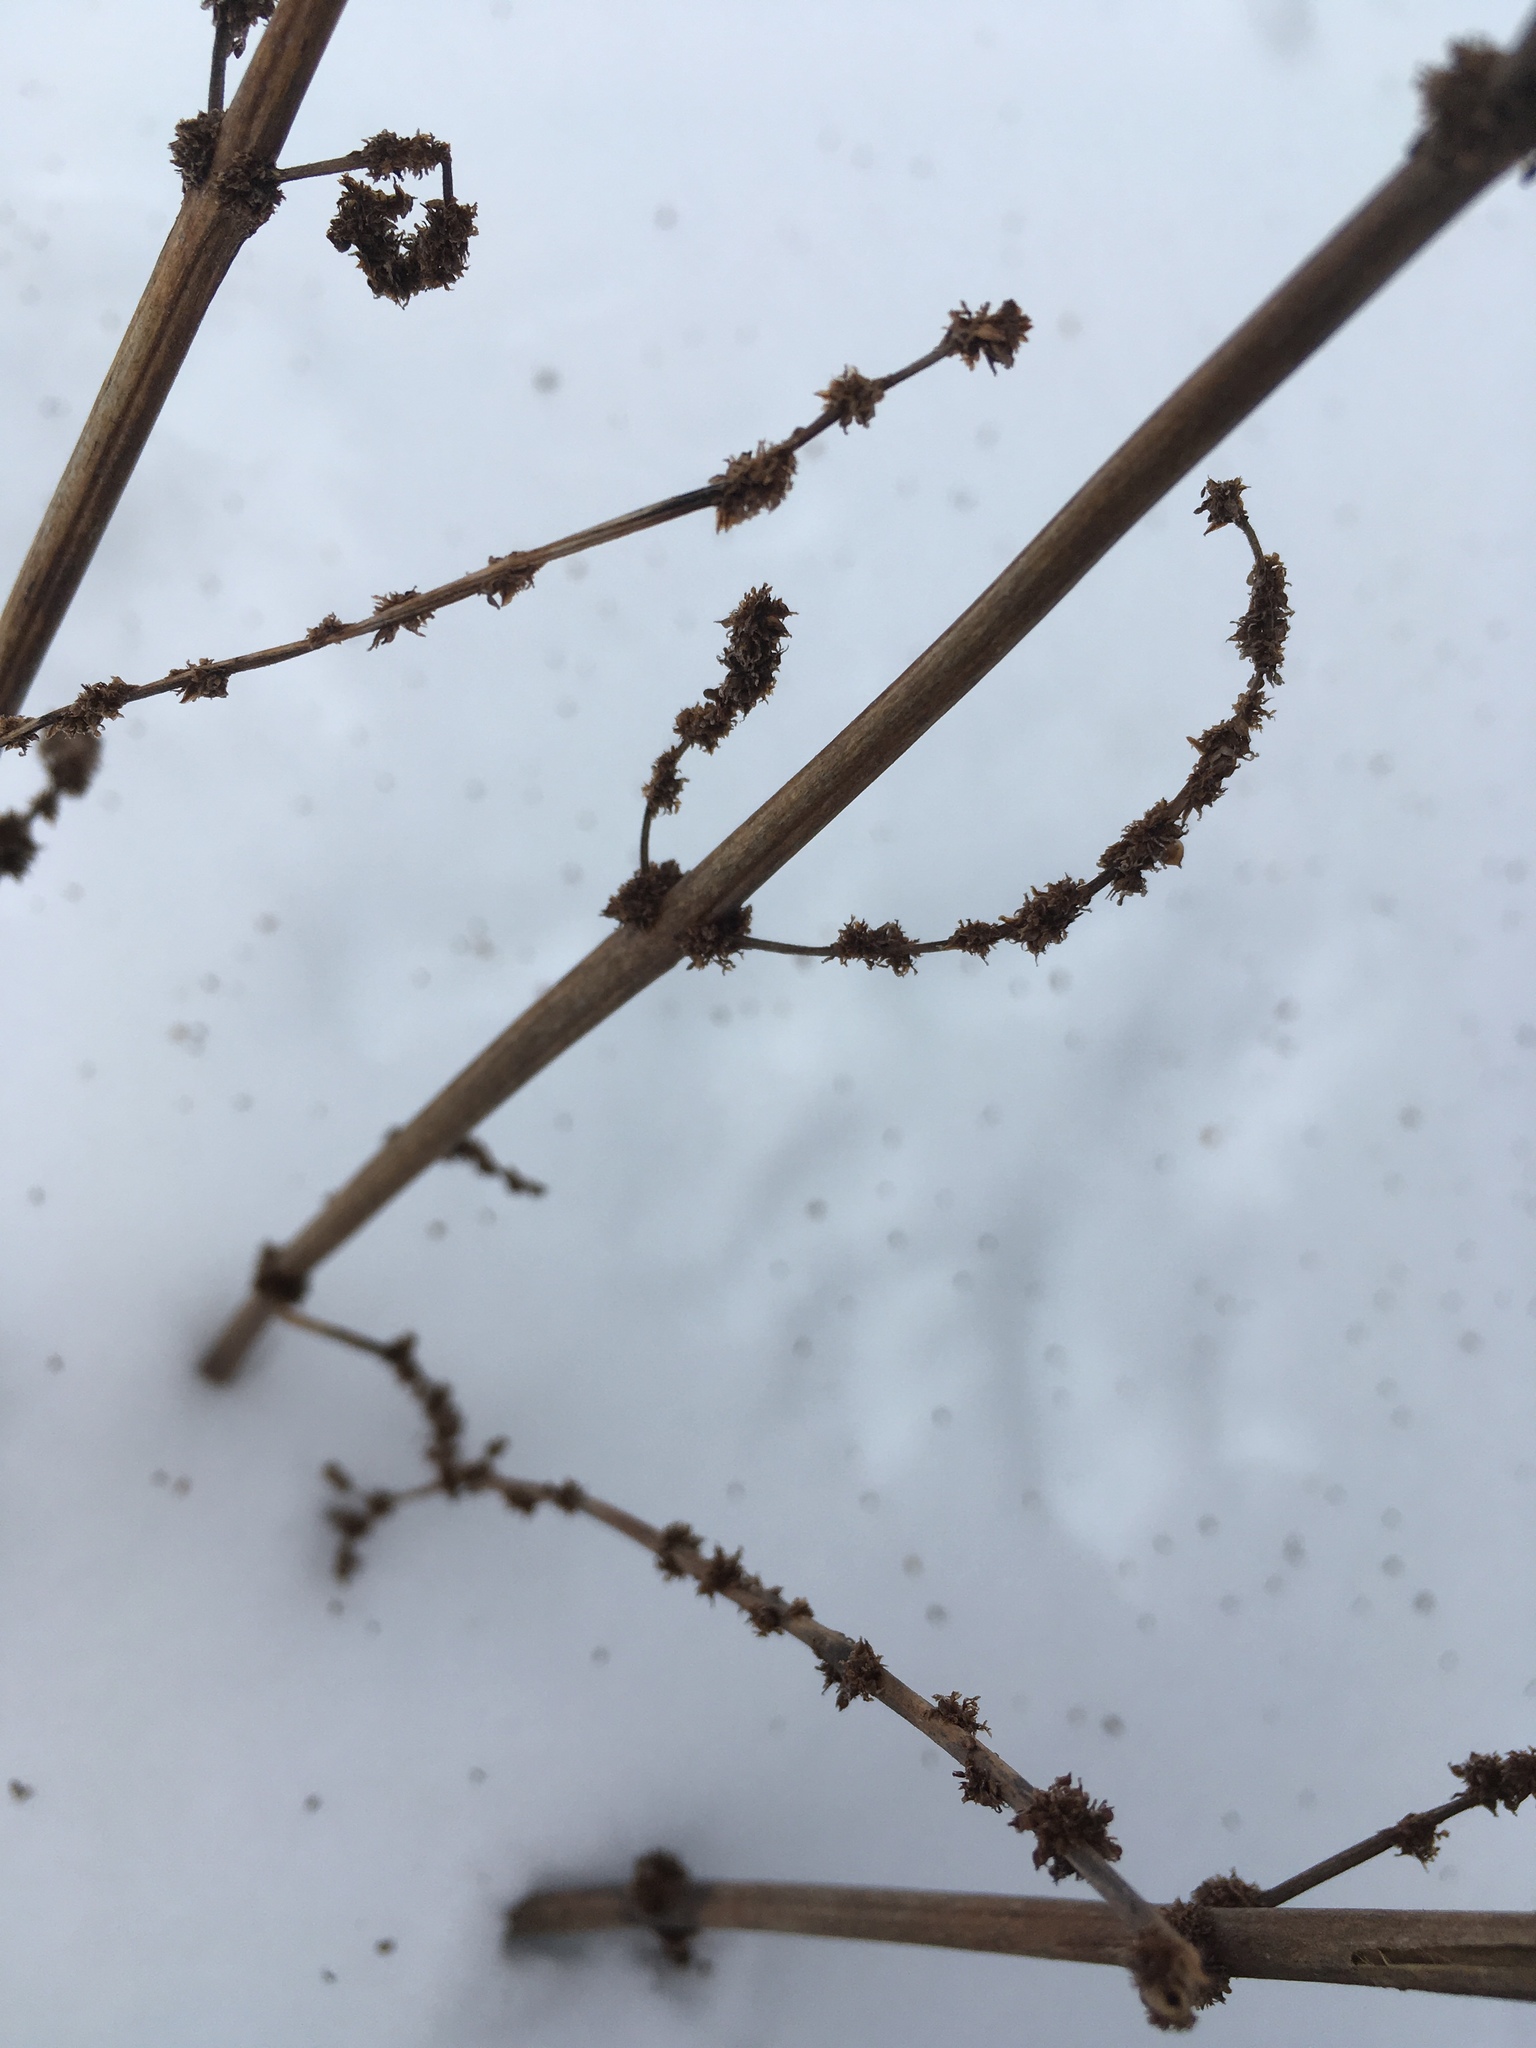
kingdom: Plantae
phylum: Tracheophyta
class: Magnoliopsida
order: Rosales
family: Urticaceae
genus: Boehmeria
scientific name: Boehmeria cylindrica
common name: Bog-hemp
